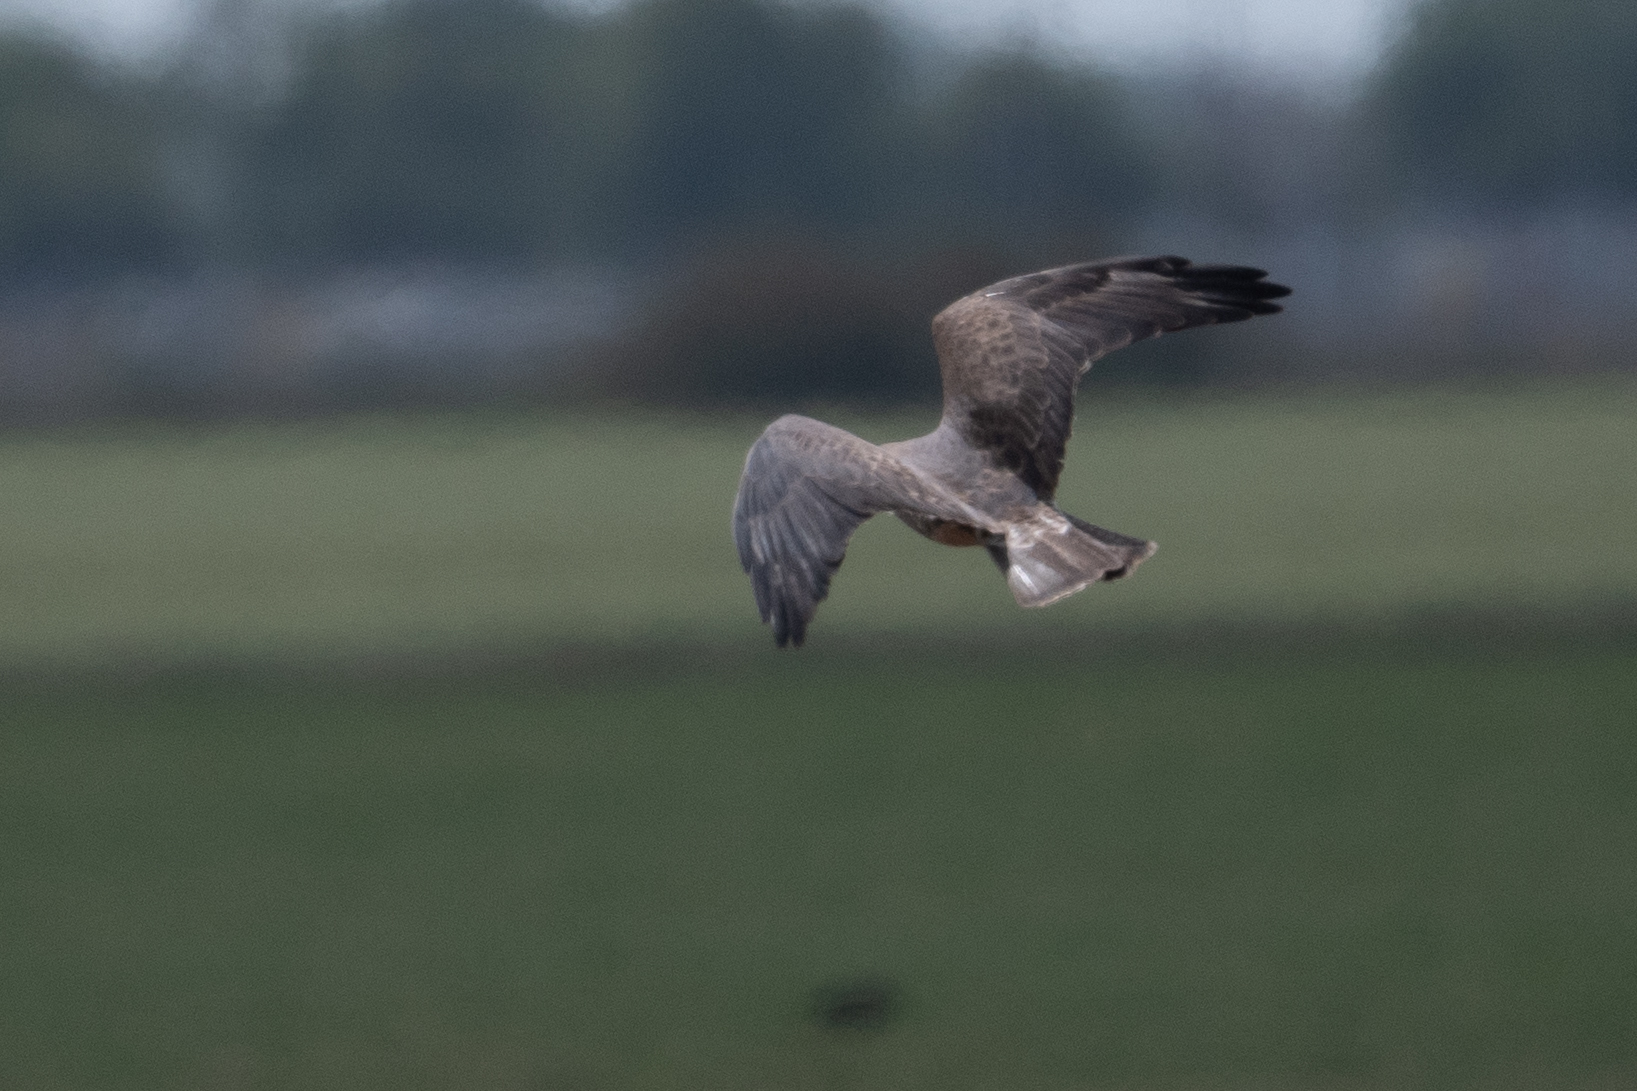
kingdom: Animalia
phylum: Chordata
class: Aves
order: Accipitriformes
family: Accipitridae
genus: Circus
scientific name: Circus cyaneus
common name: Hen harrier
